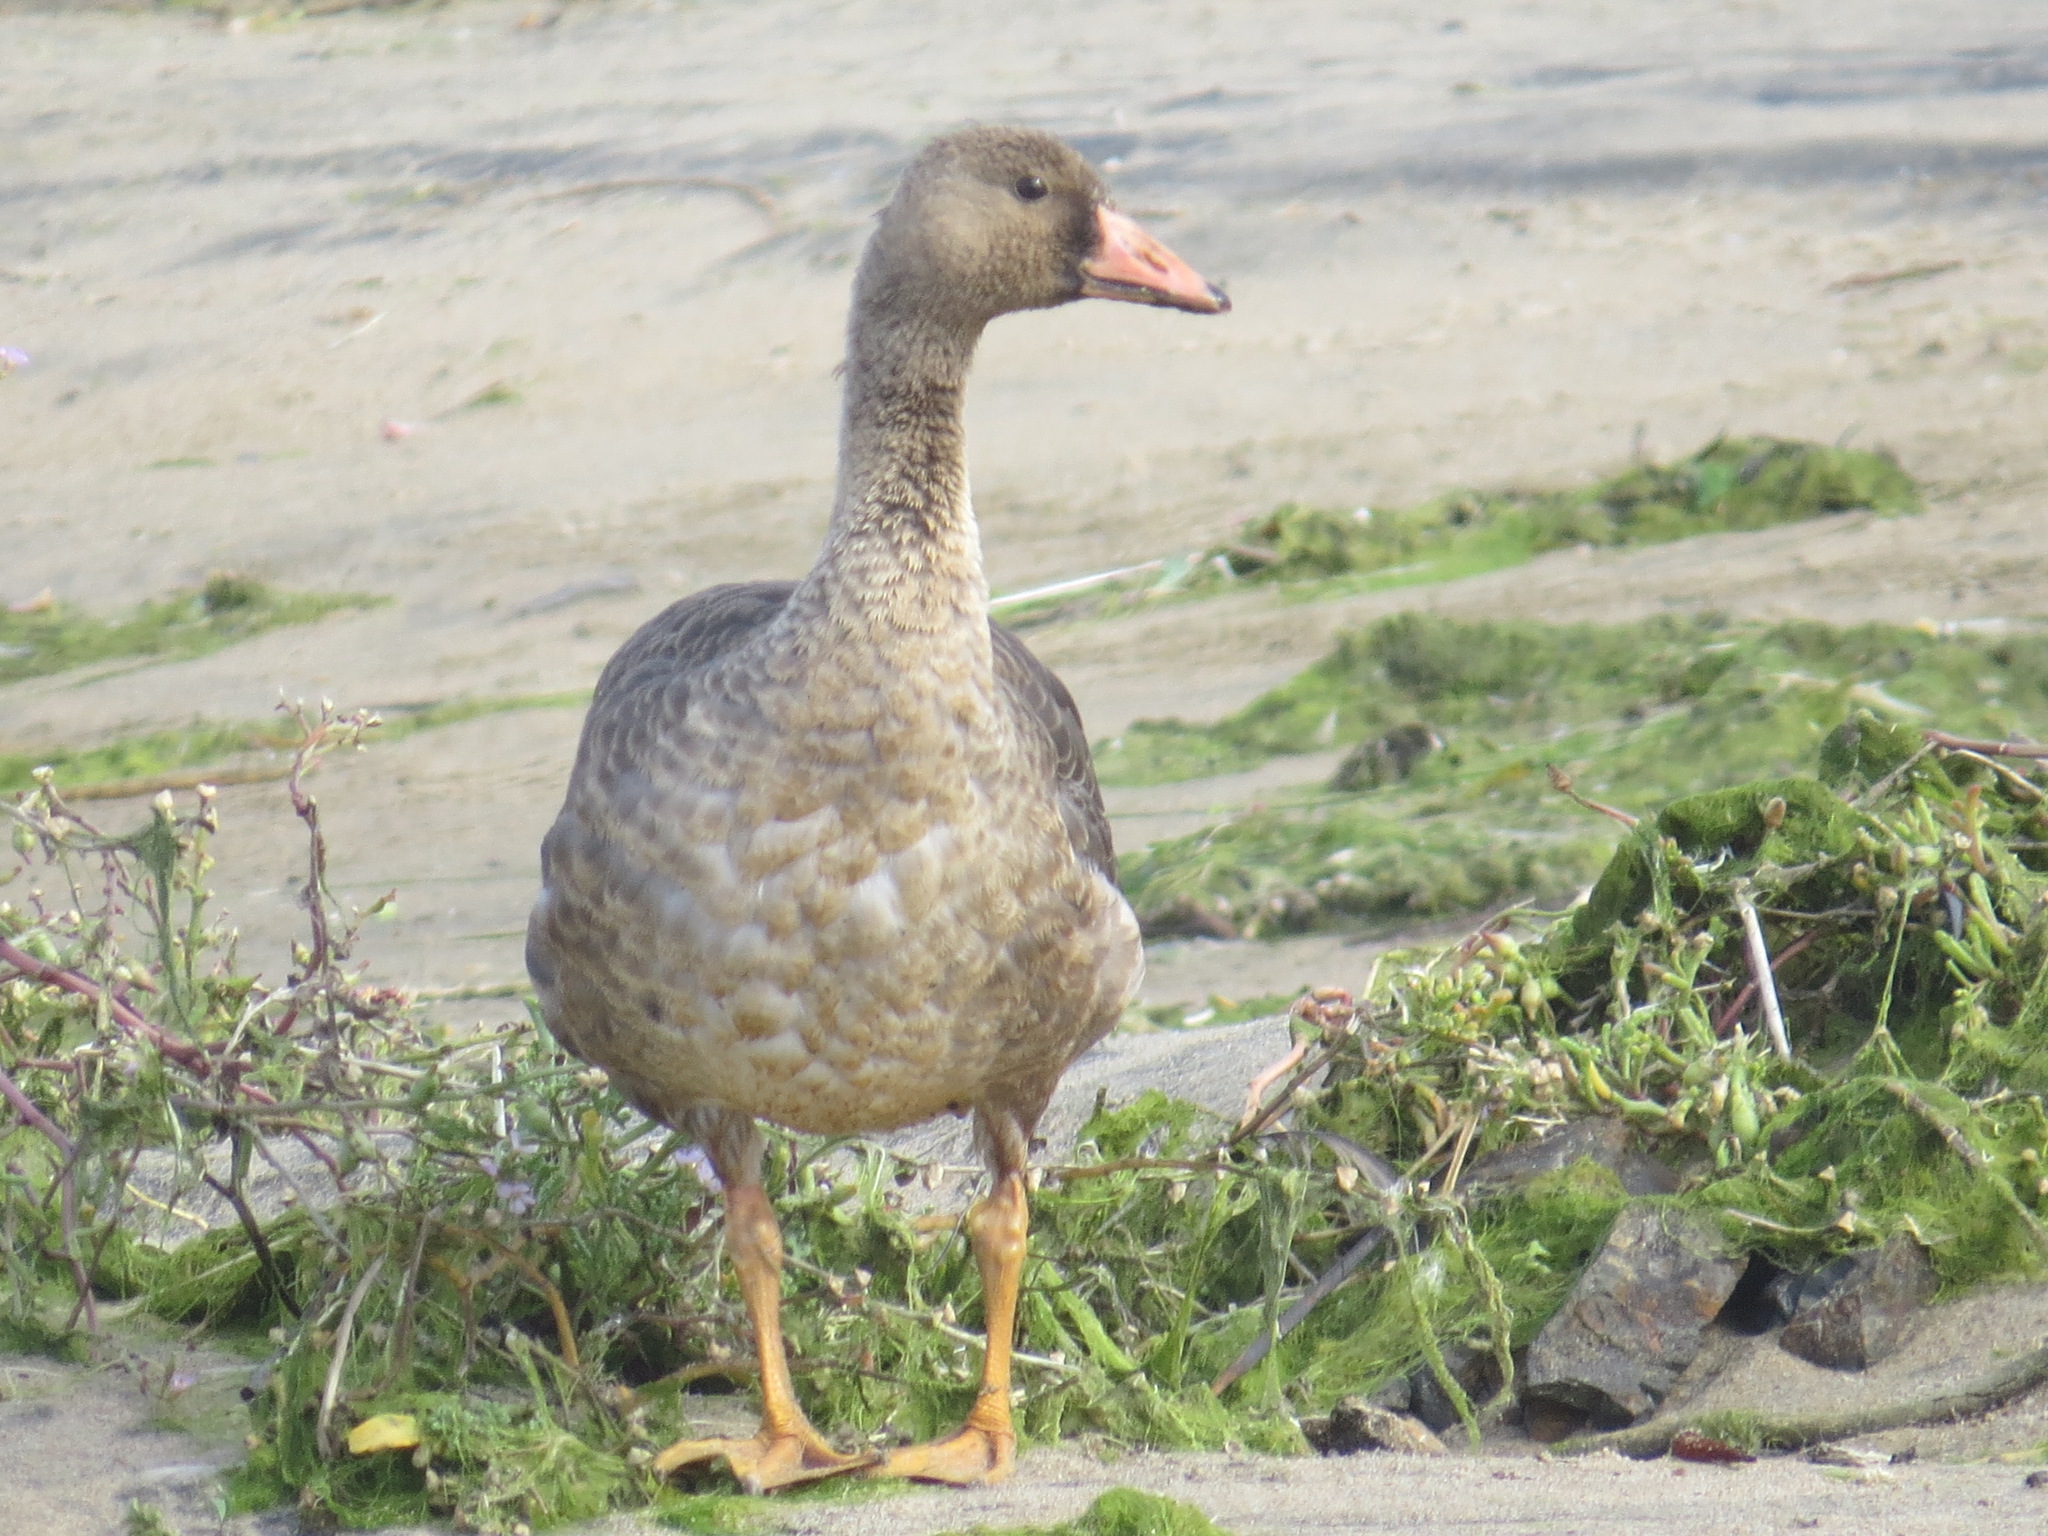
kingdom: Animalia
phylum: Chordata
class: Aves
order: Anseriformes
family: Anatidae
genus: Anser
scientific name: Anser albifrons
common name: Greater white-fronted goose
